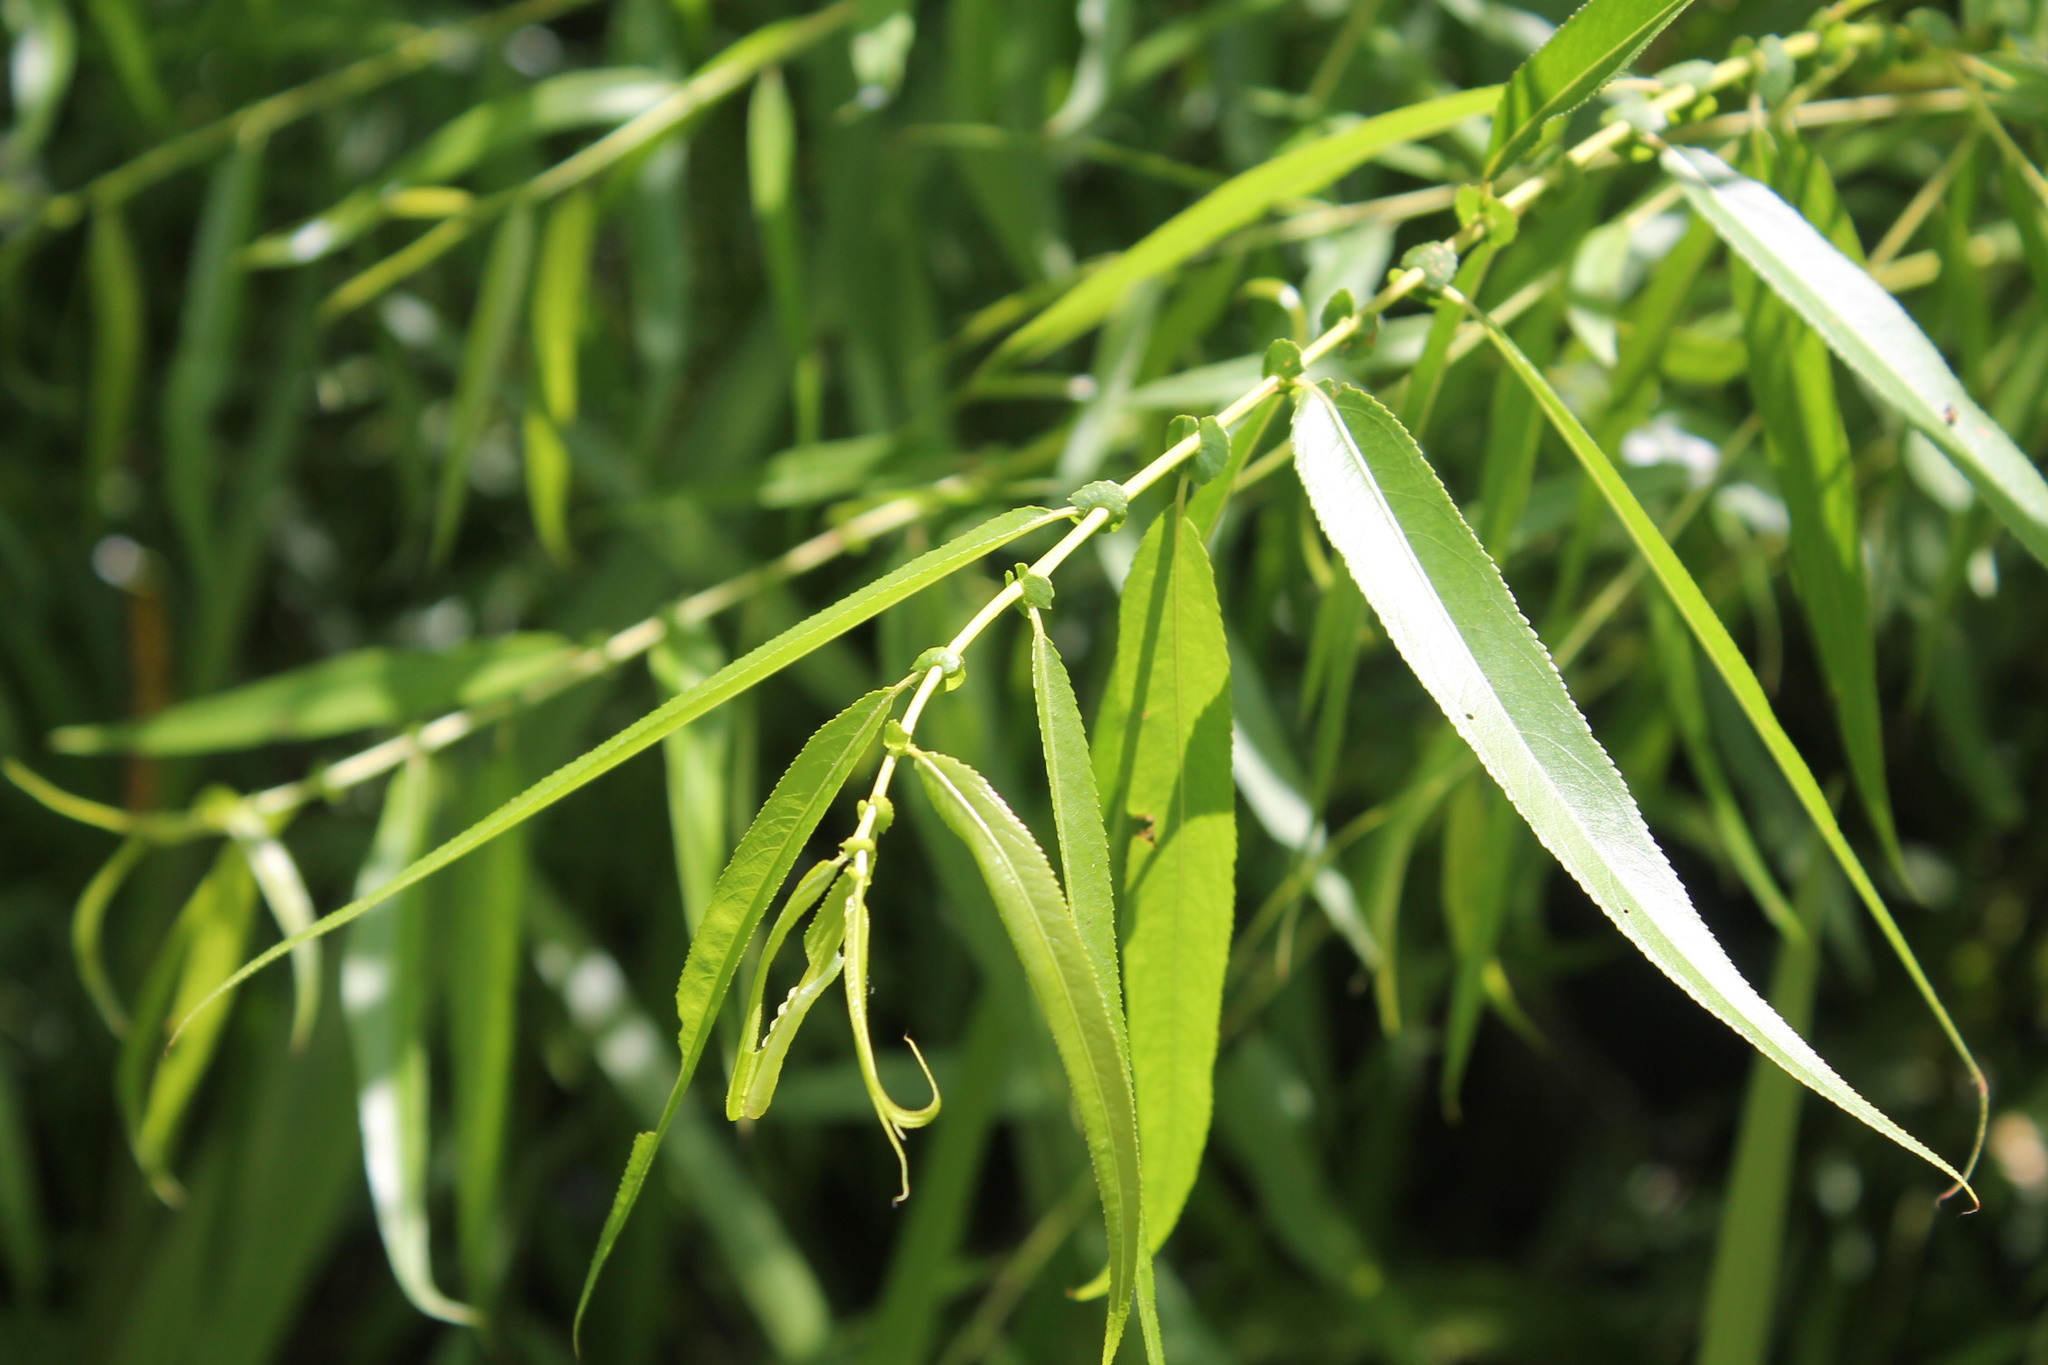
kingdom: Plantae
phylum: Tracheophyta
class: Magnoliopsida
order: Malpighiales
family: Salicaceae
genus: Salix
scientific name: Salix nigra
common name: Black willow
